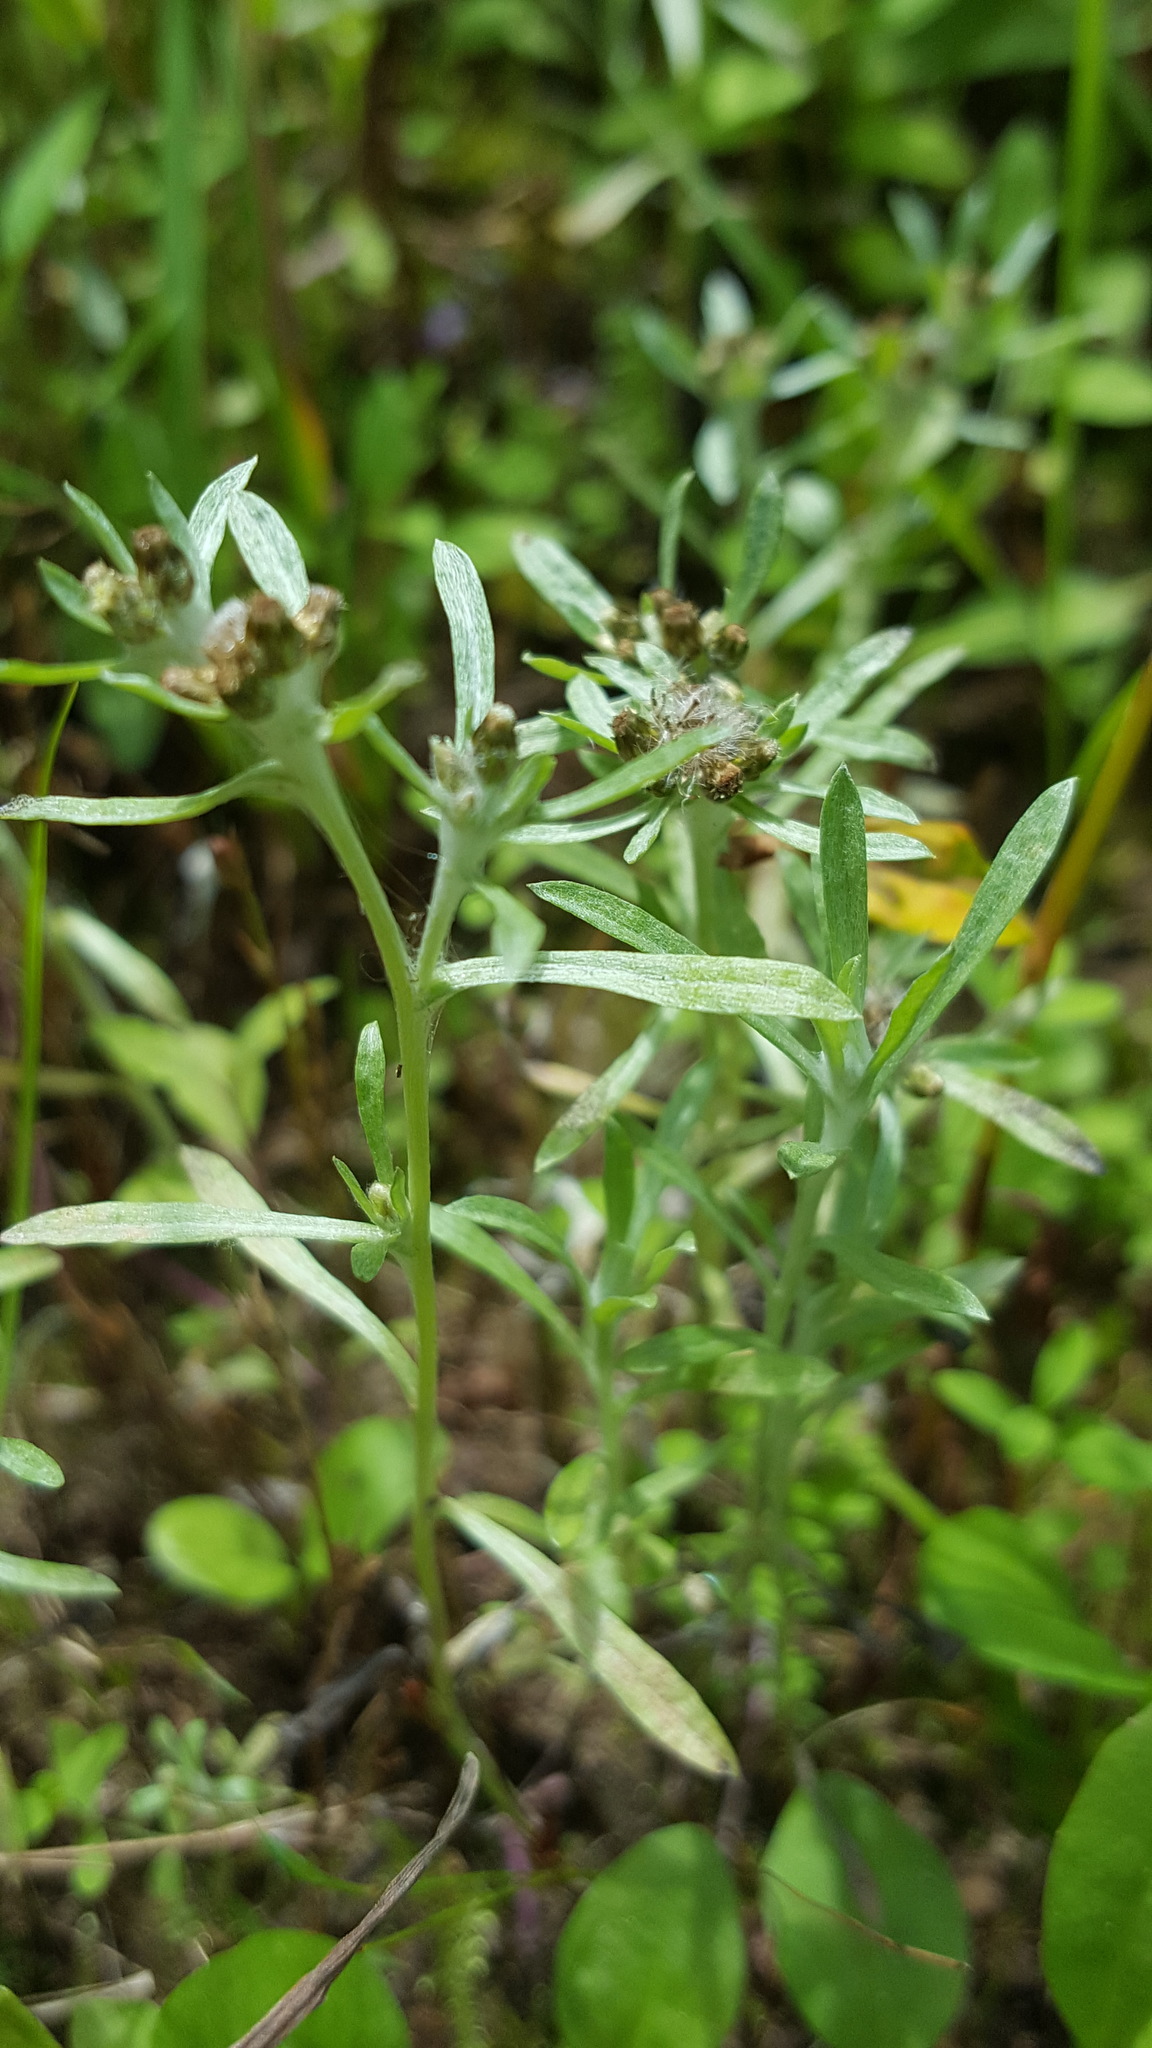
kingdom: Plantae
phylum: Tracheophyta
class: Magnoliopsida
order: Asterales
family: Asteraceae
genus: Gnaphalium
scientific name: Gnaphalium uliginosum
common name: Marsh cudweed
